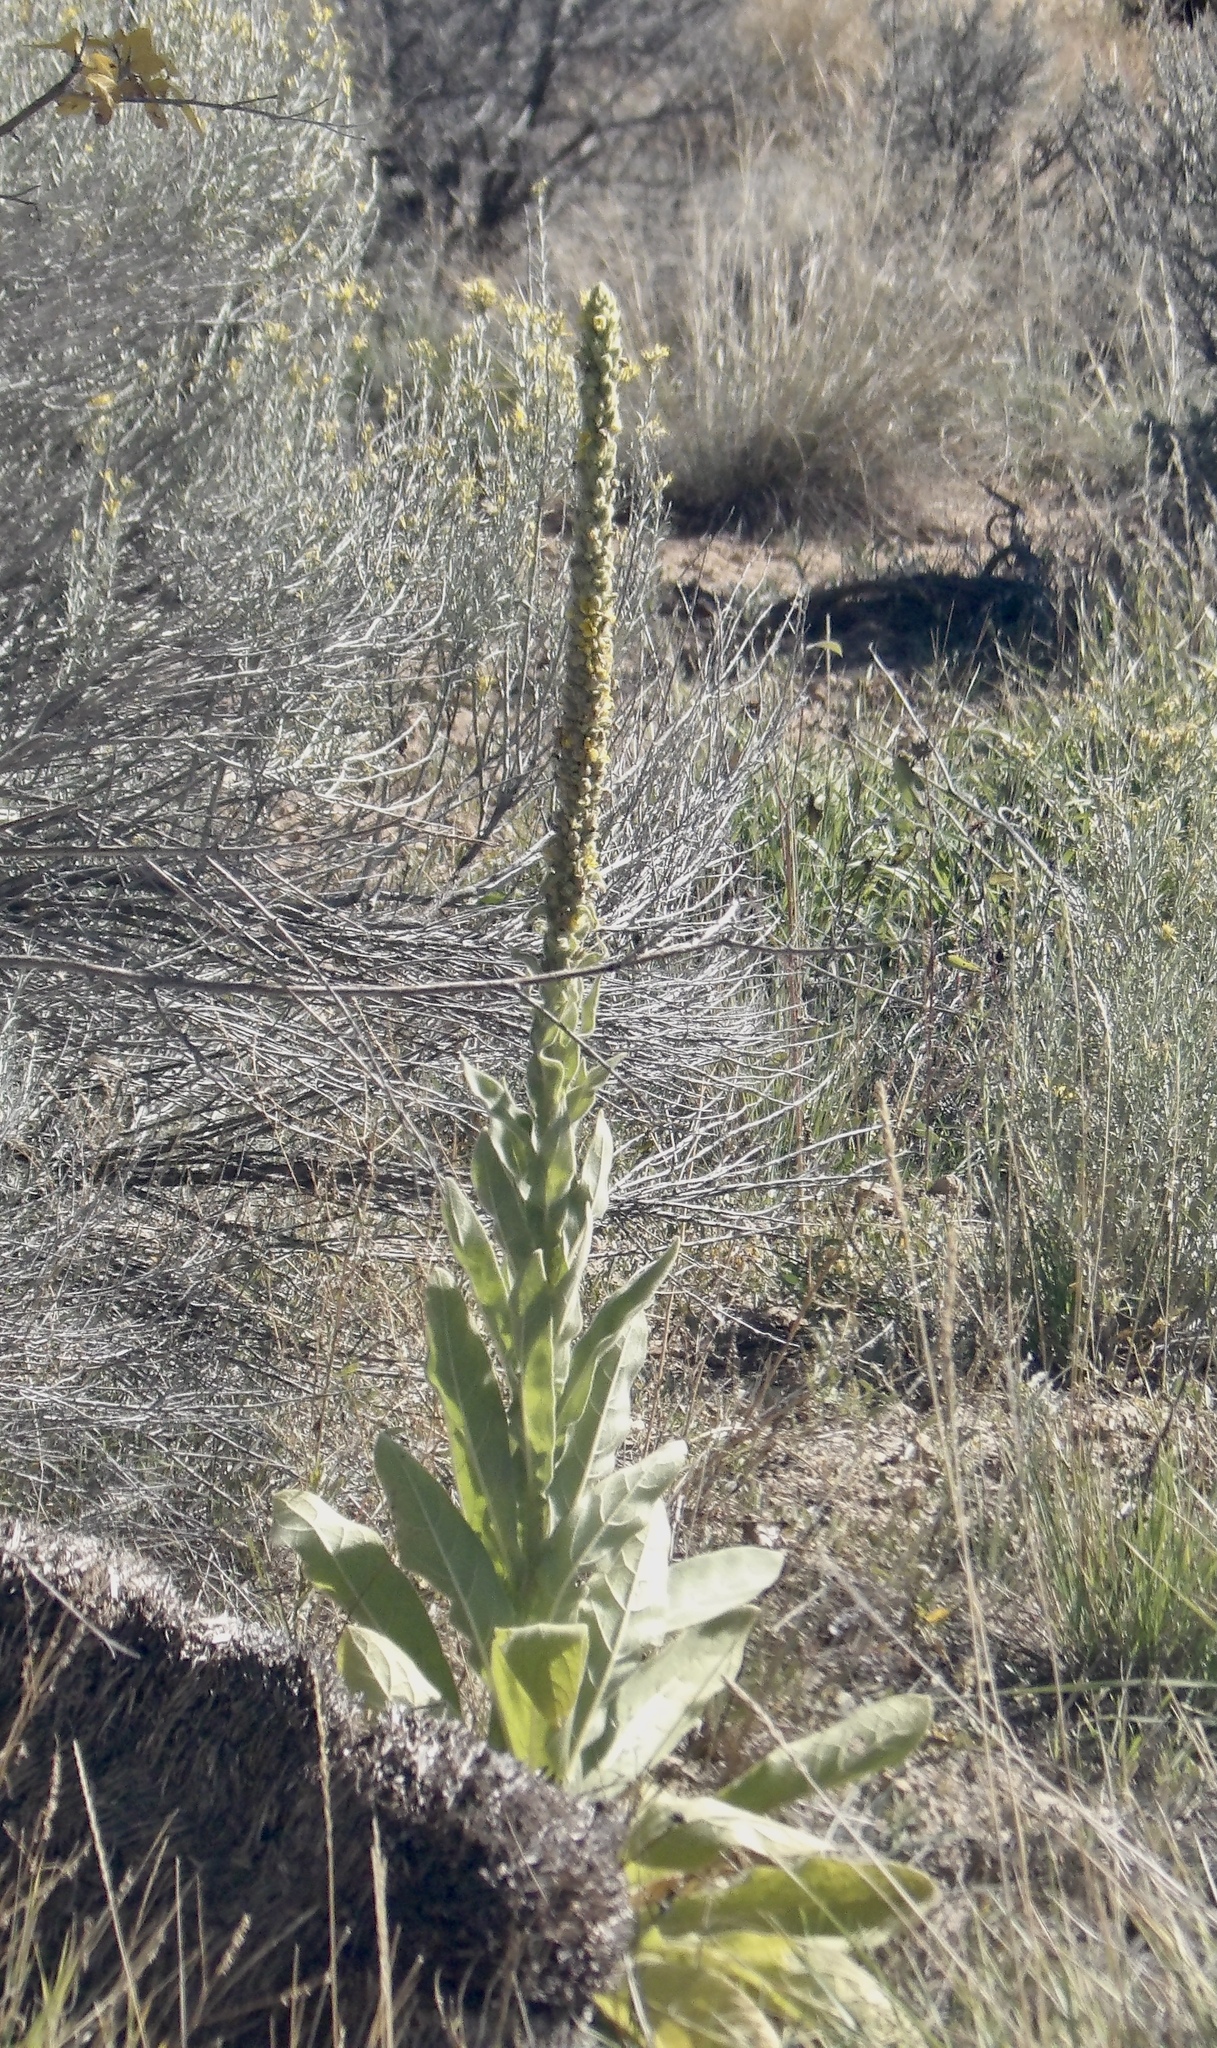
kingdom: Plantae
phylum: Tracheophyta
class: Magnoliopsida
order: Lamiales
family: Scrophulariaceae
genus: Verbascum
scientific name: Verbascum thapsus
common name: Common mullein
